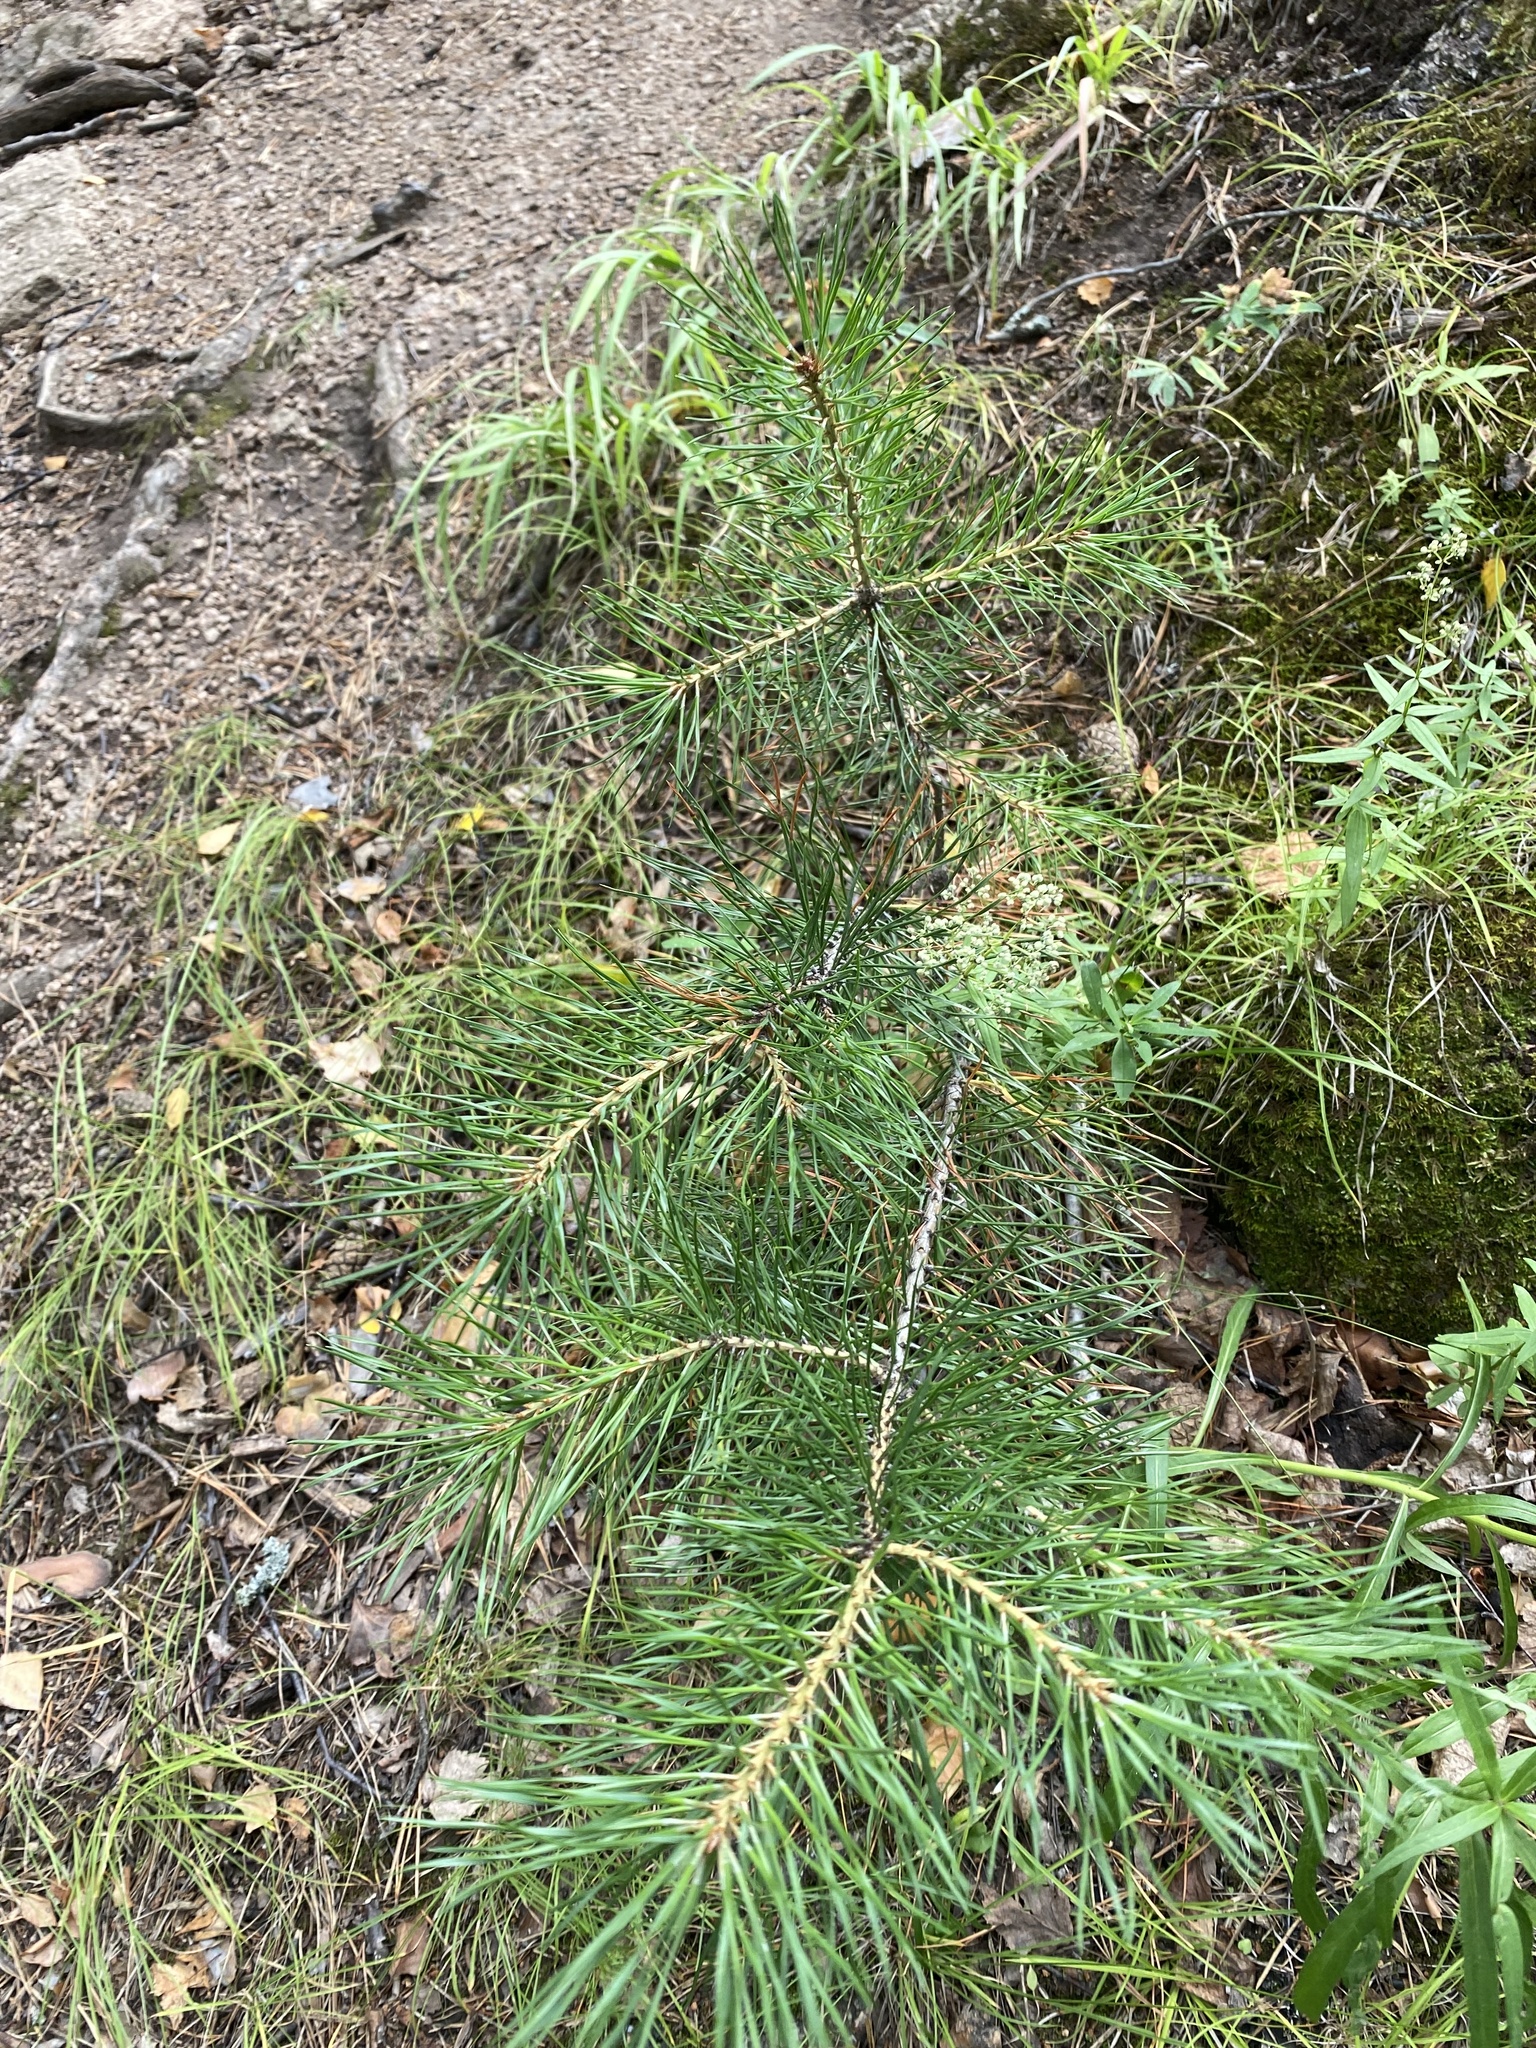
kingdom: Plantae
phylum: Tracheophyta
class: Pinopsida
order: Pinales
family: Pinaceae
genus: Pinus
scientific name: Pinus sylvestris
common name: Scots pine
